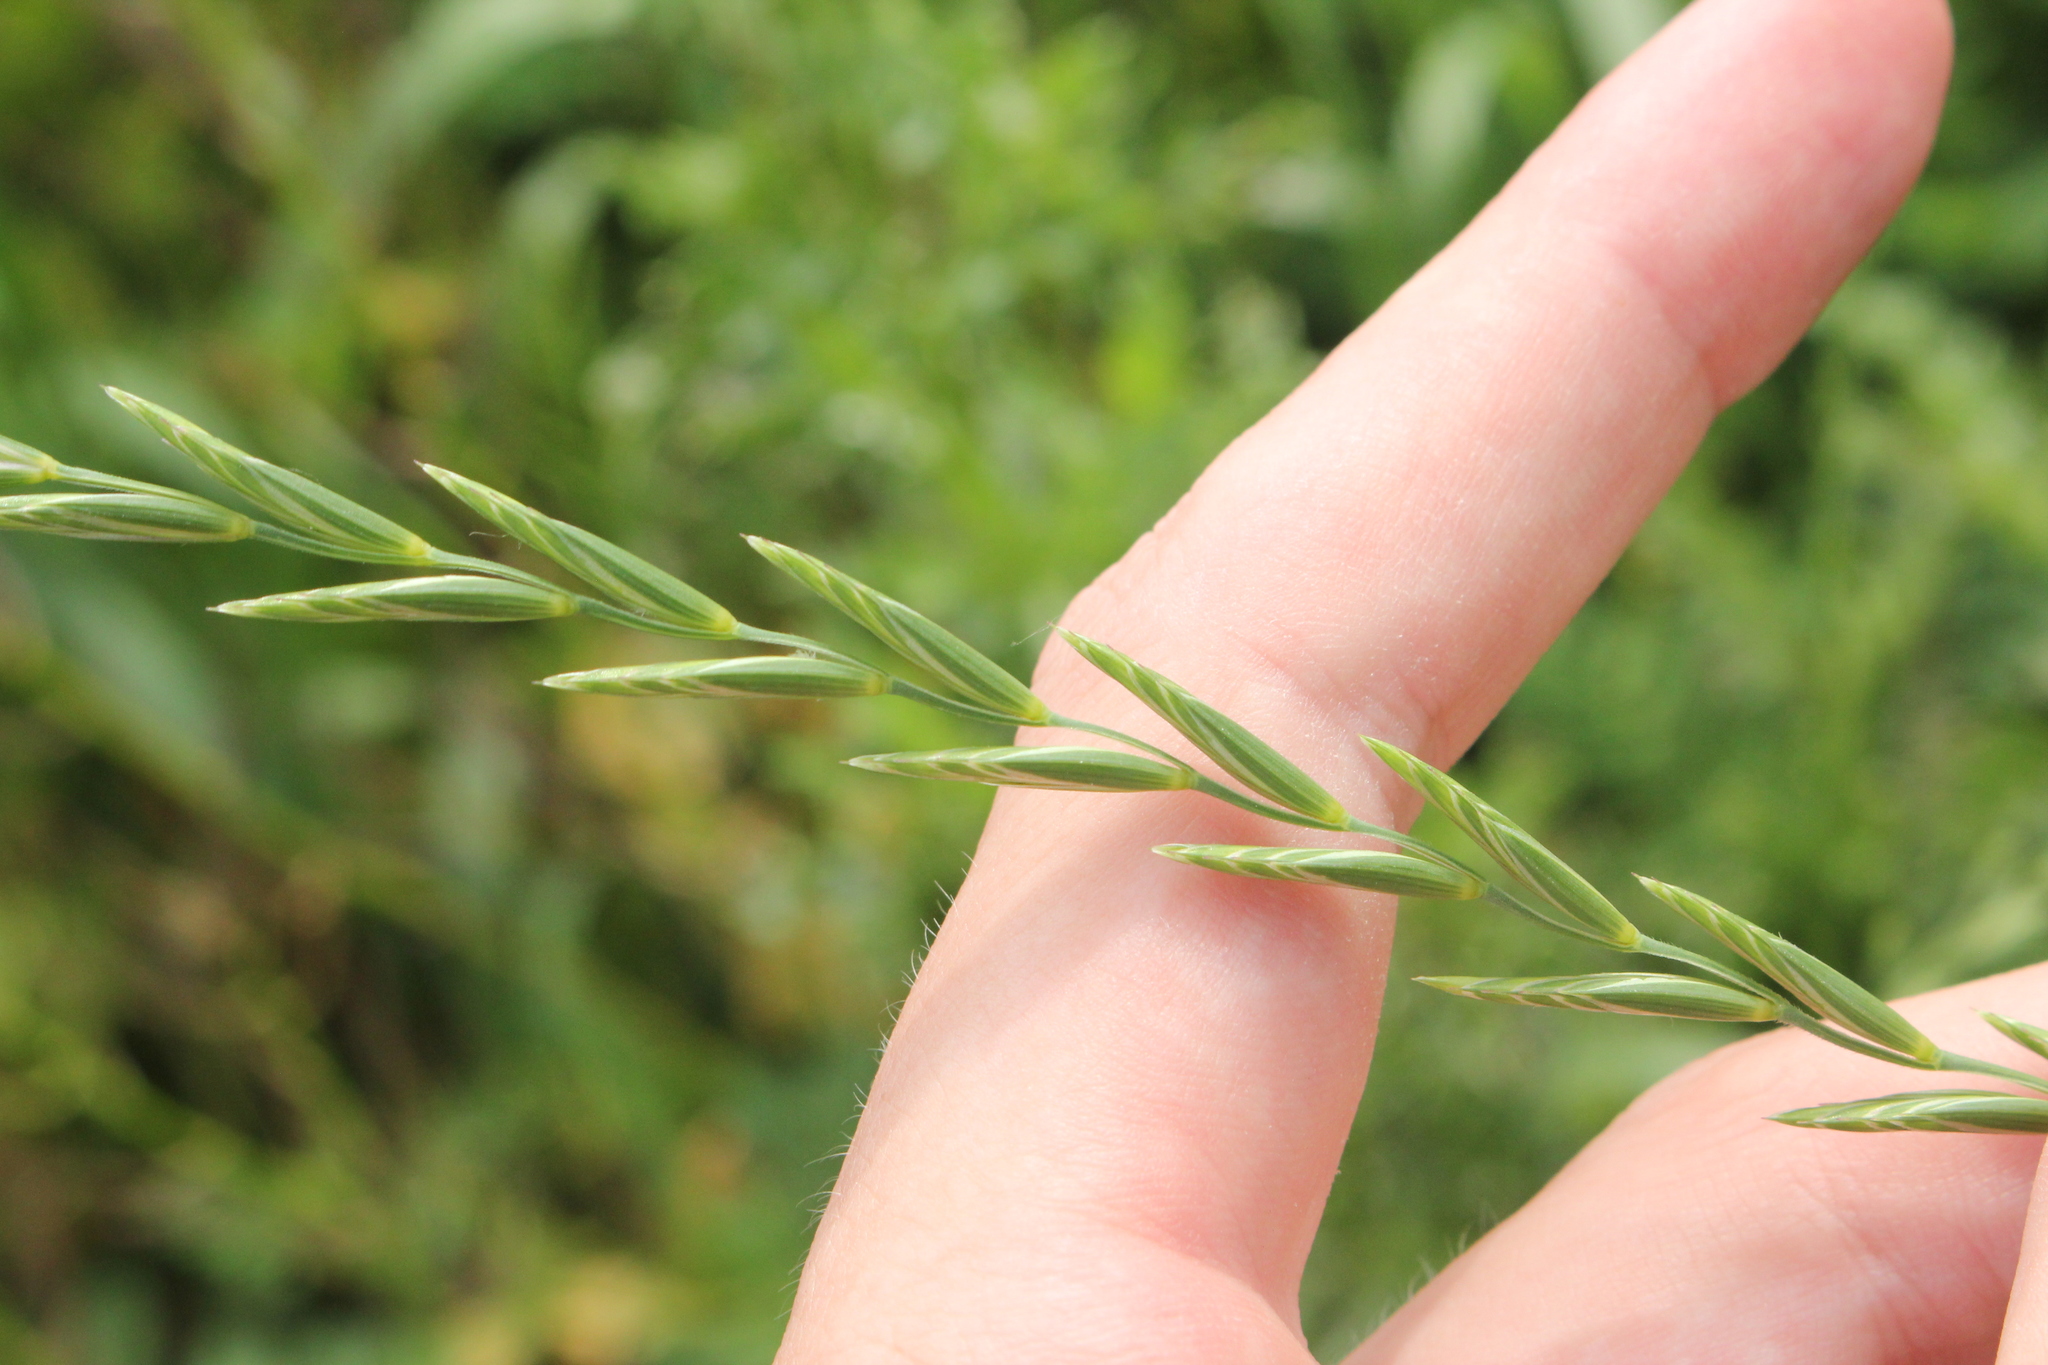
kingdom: Plantae
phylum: Tracheophyta
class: Liliopsida
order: Poales
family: Poaceae
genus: Elymus
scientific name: Elymus repens
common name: Quackgrass
